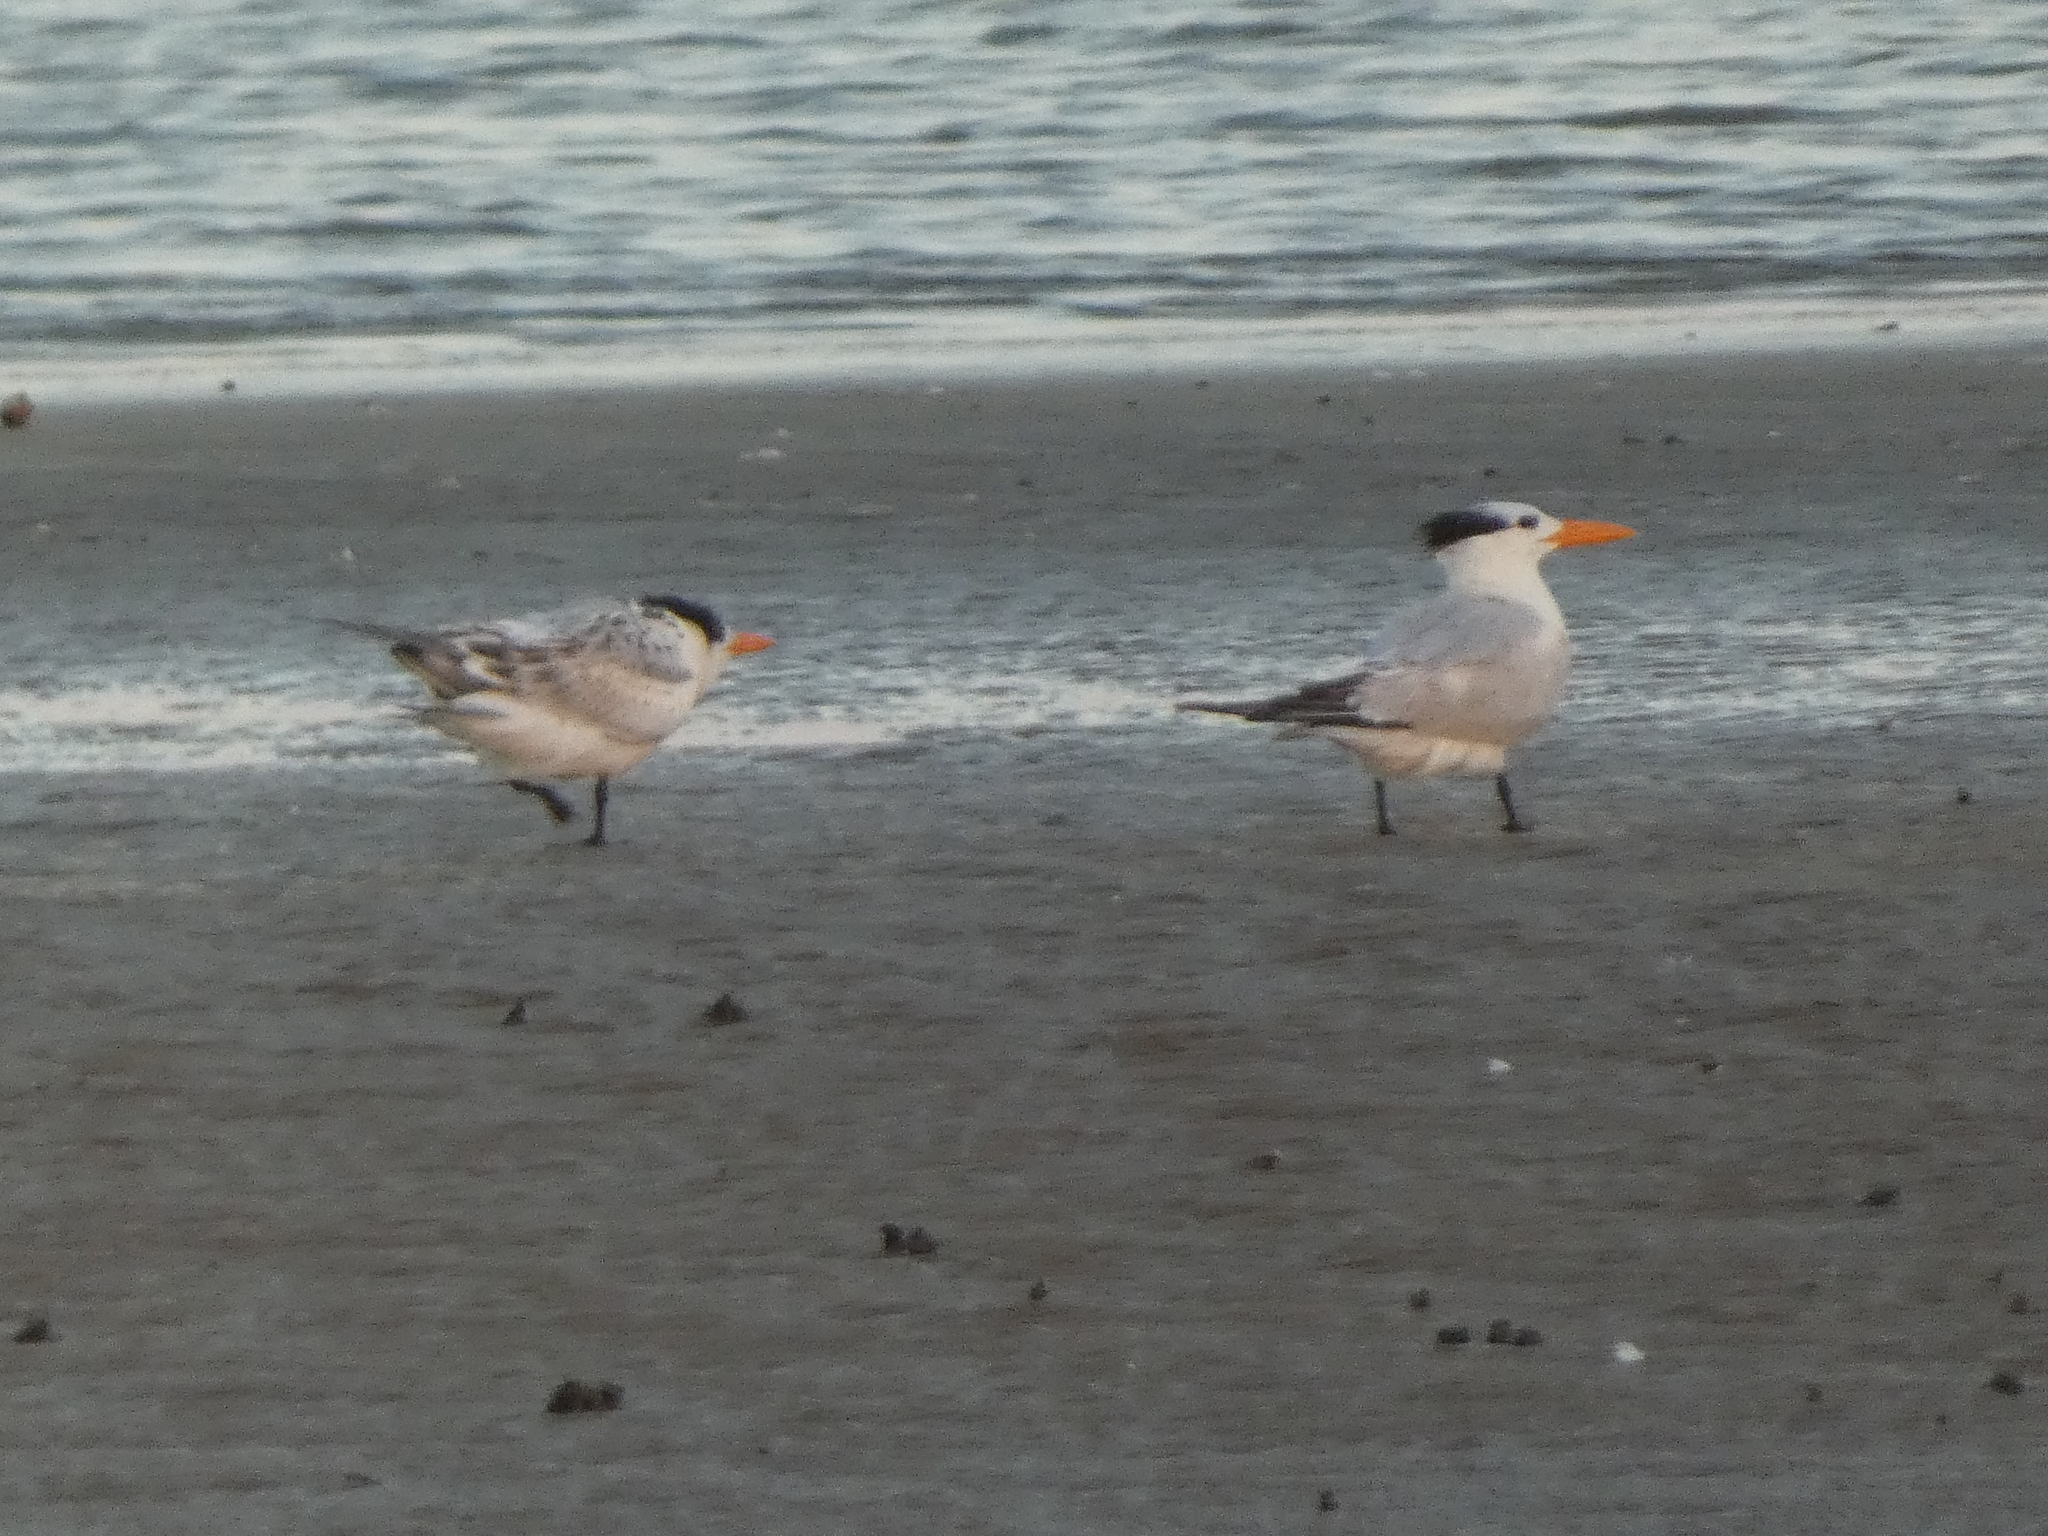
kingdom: Animalia
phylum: Chordata
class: Aves
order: Charadriiformes
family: Laridae
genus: Thalasseus
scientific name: Thalasseus maximus
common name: Royal tern
